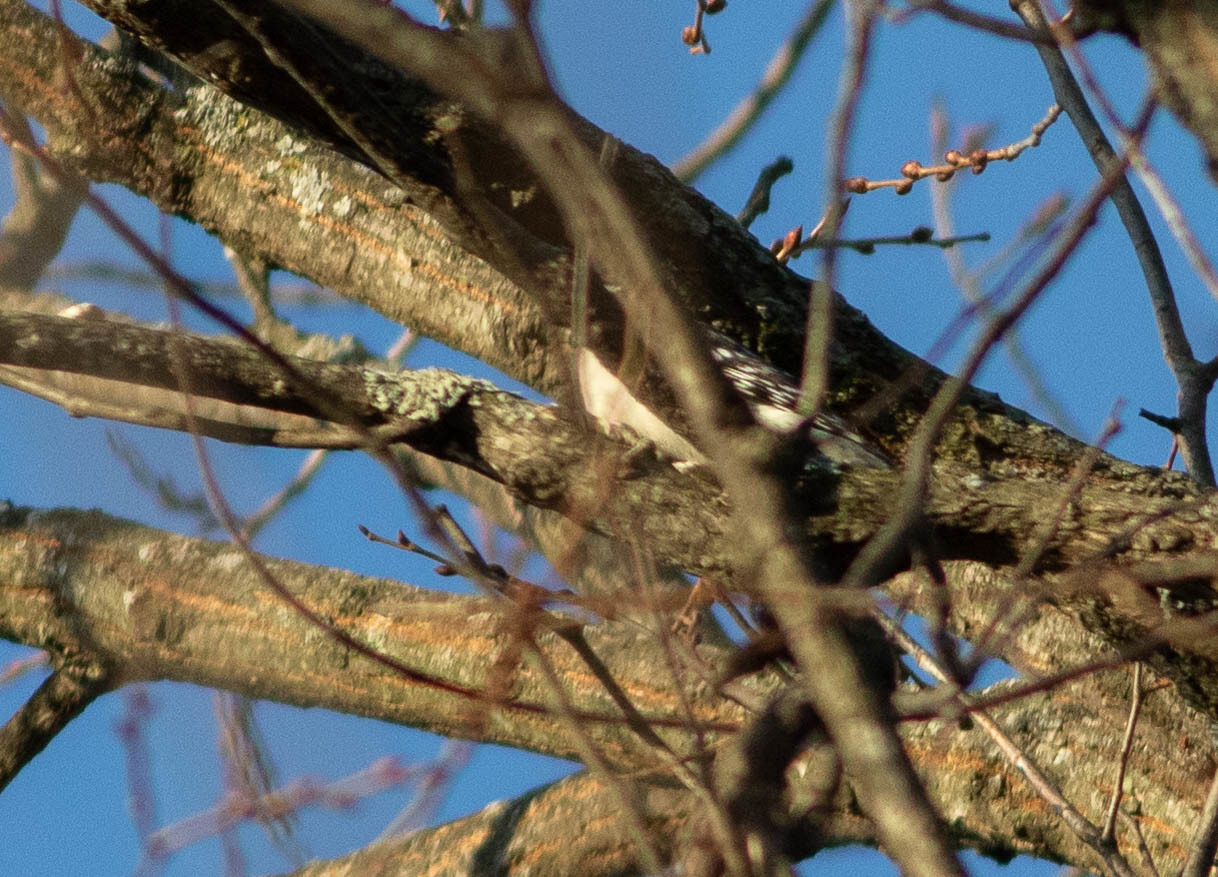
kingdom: Animalia
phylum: Chordata
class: Aves
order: Piciformes
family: Picidae
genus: Dryobates
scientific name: Dryobates pubescens
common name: Downy woodpecker
